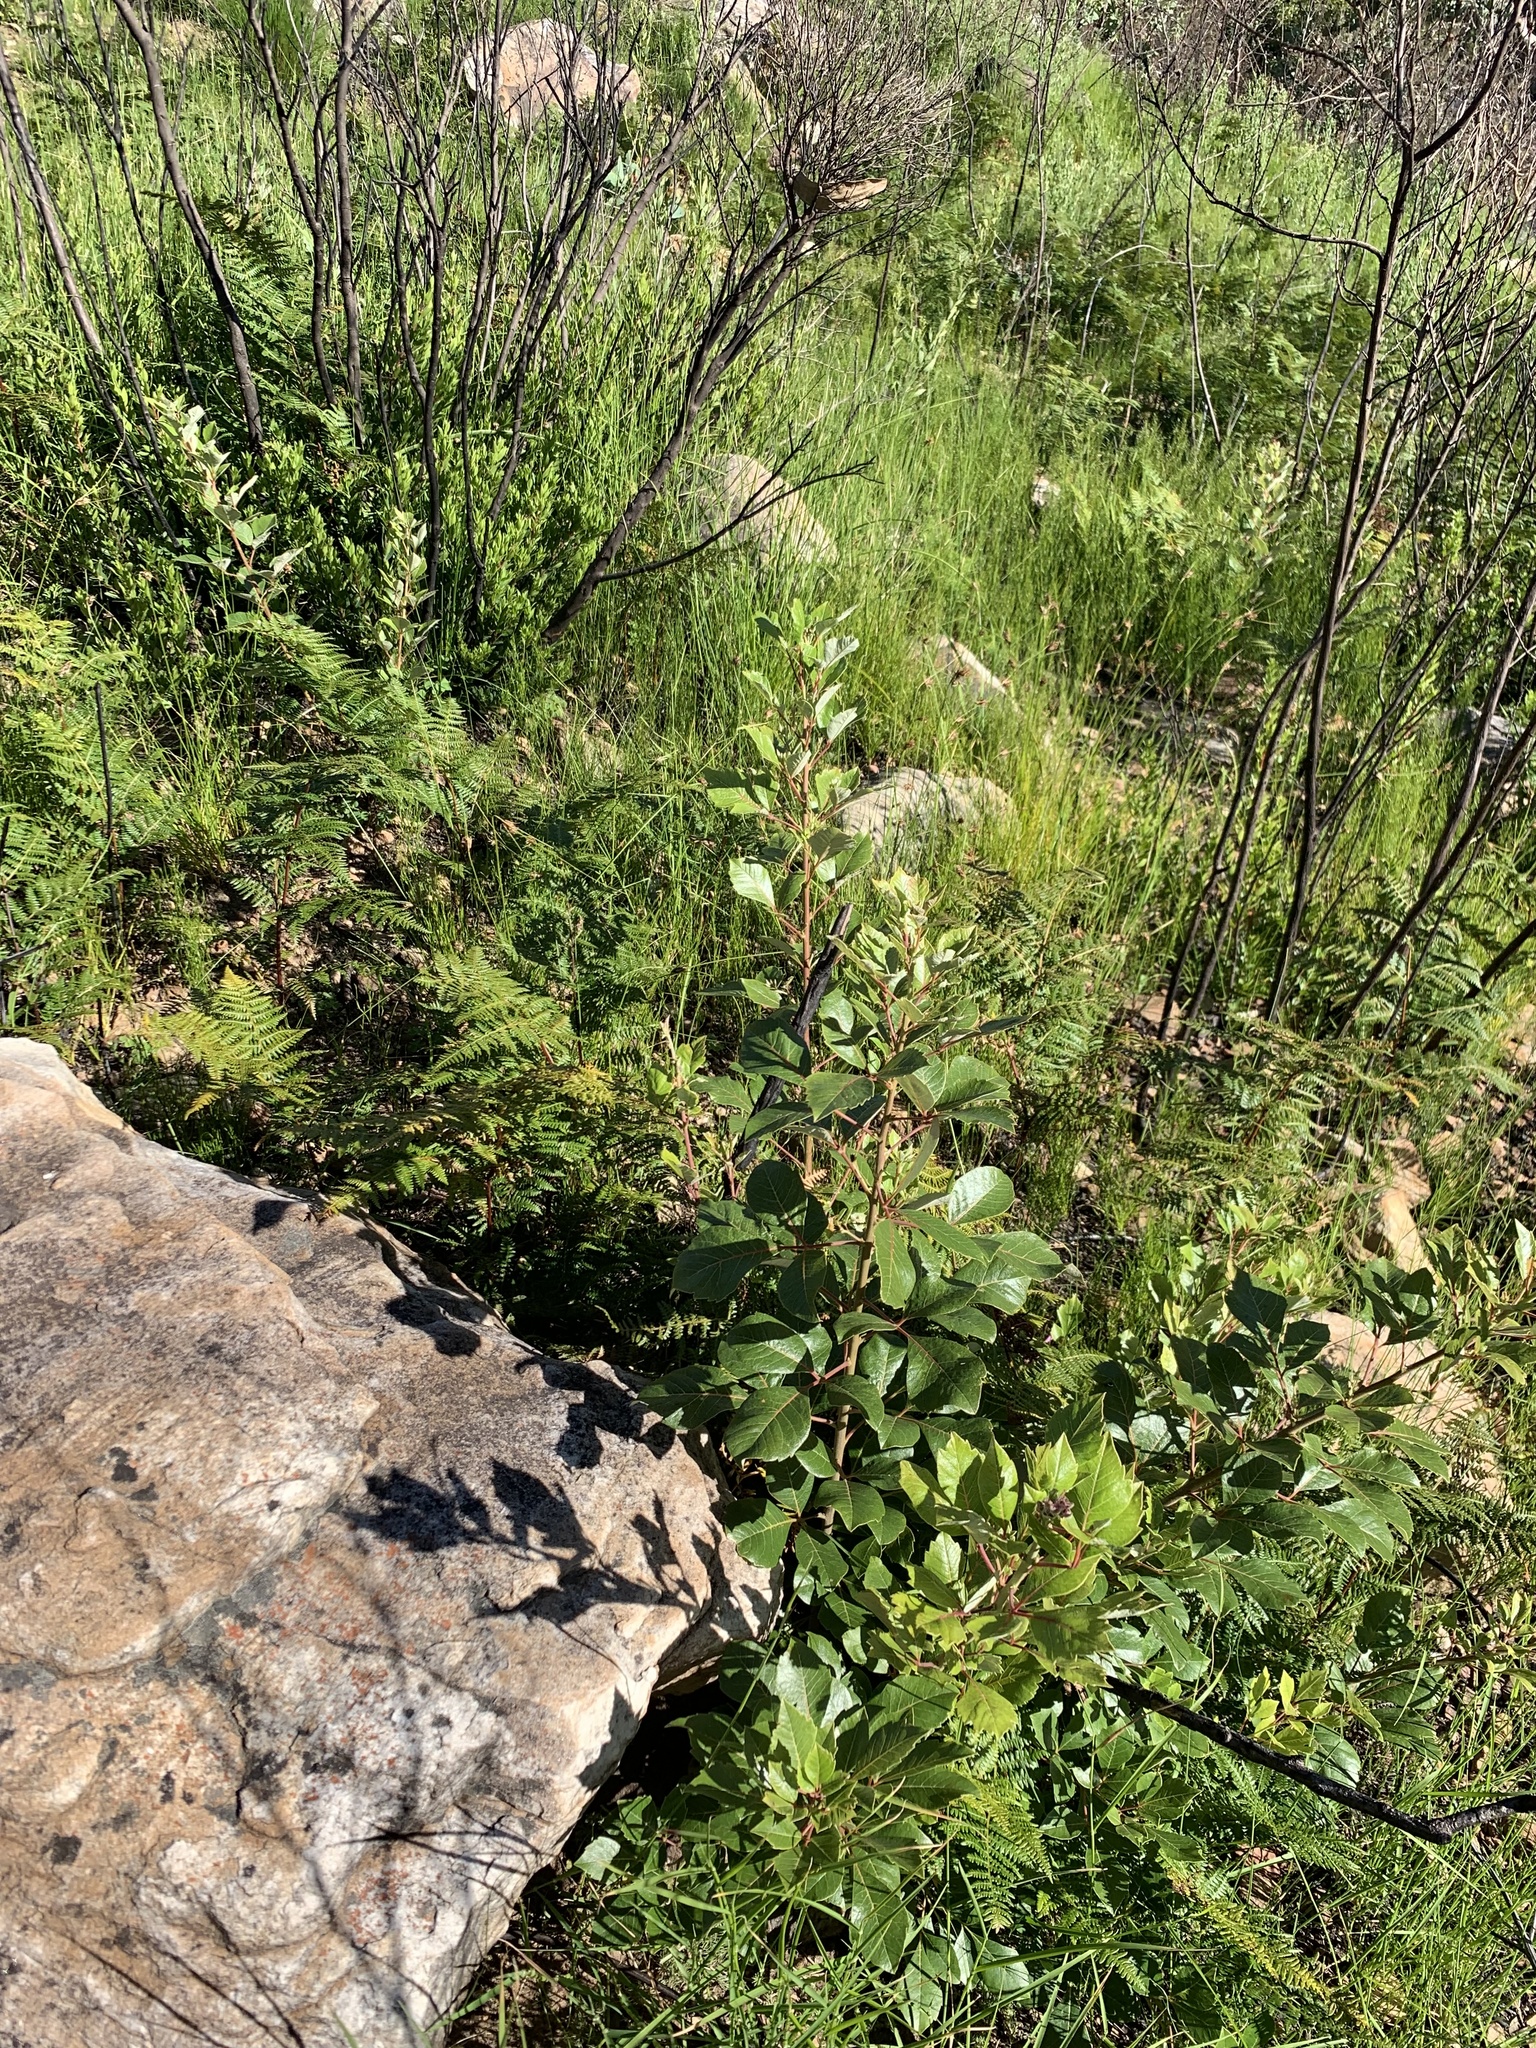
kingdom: Plantae
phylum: Tracheophyta
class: Magnoliopsida
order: Sapindales
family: Anacardiaceae
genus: Searsia
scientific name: Searsia tomentosa
